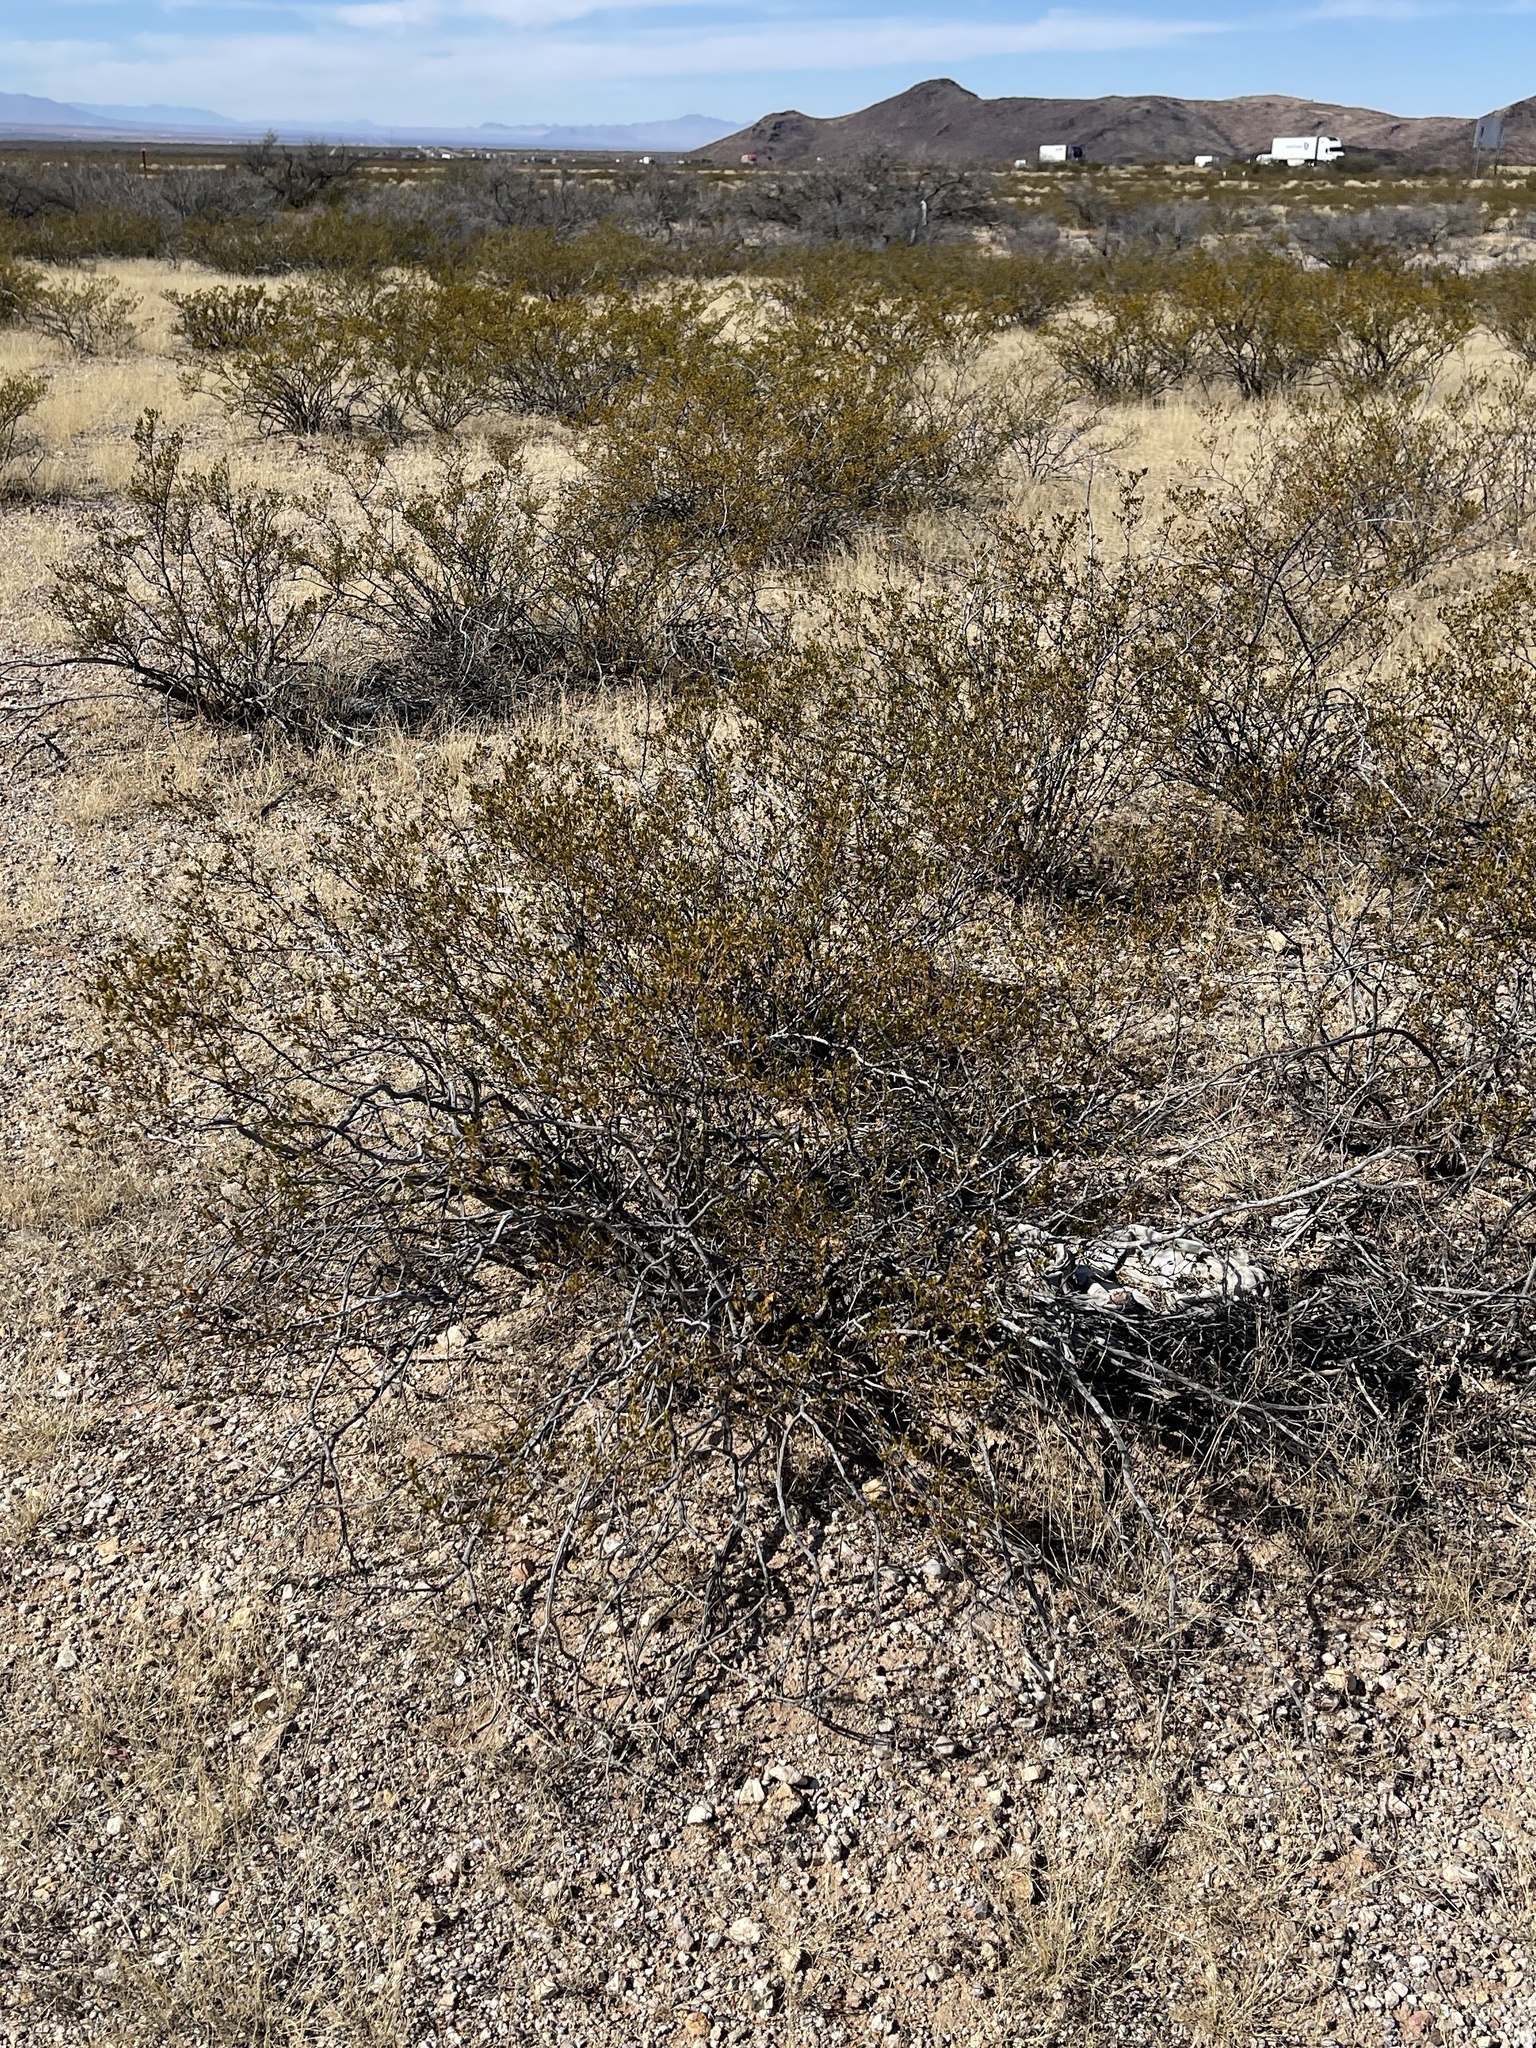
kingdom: Plantae
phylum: Tracheophyta
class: Magnoliopsida
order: Zygophyllales
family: Zygophyllaceae
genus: Larrea
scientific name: Larrea tridentata
